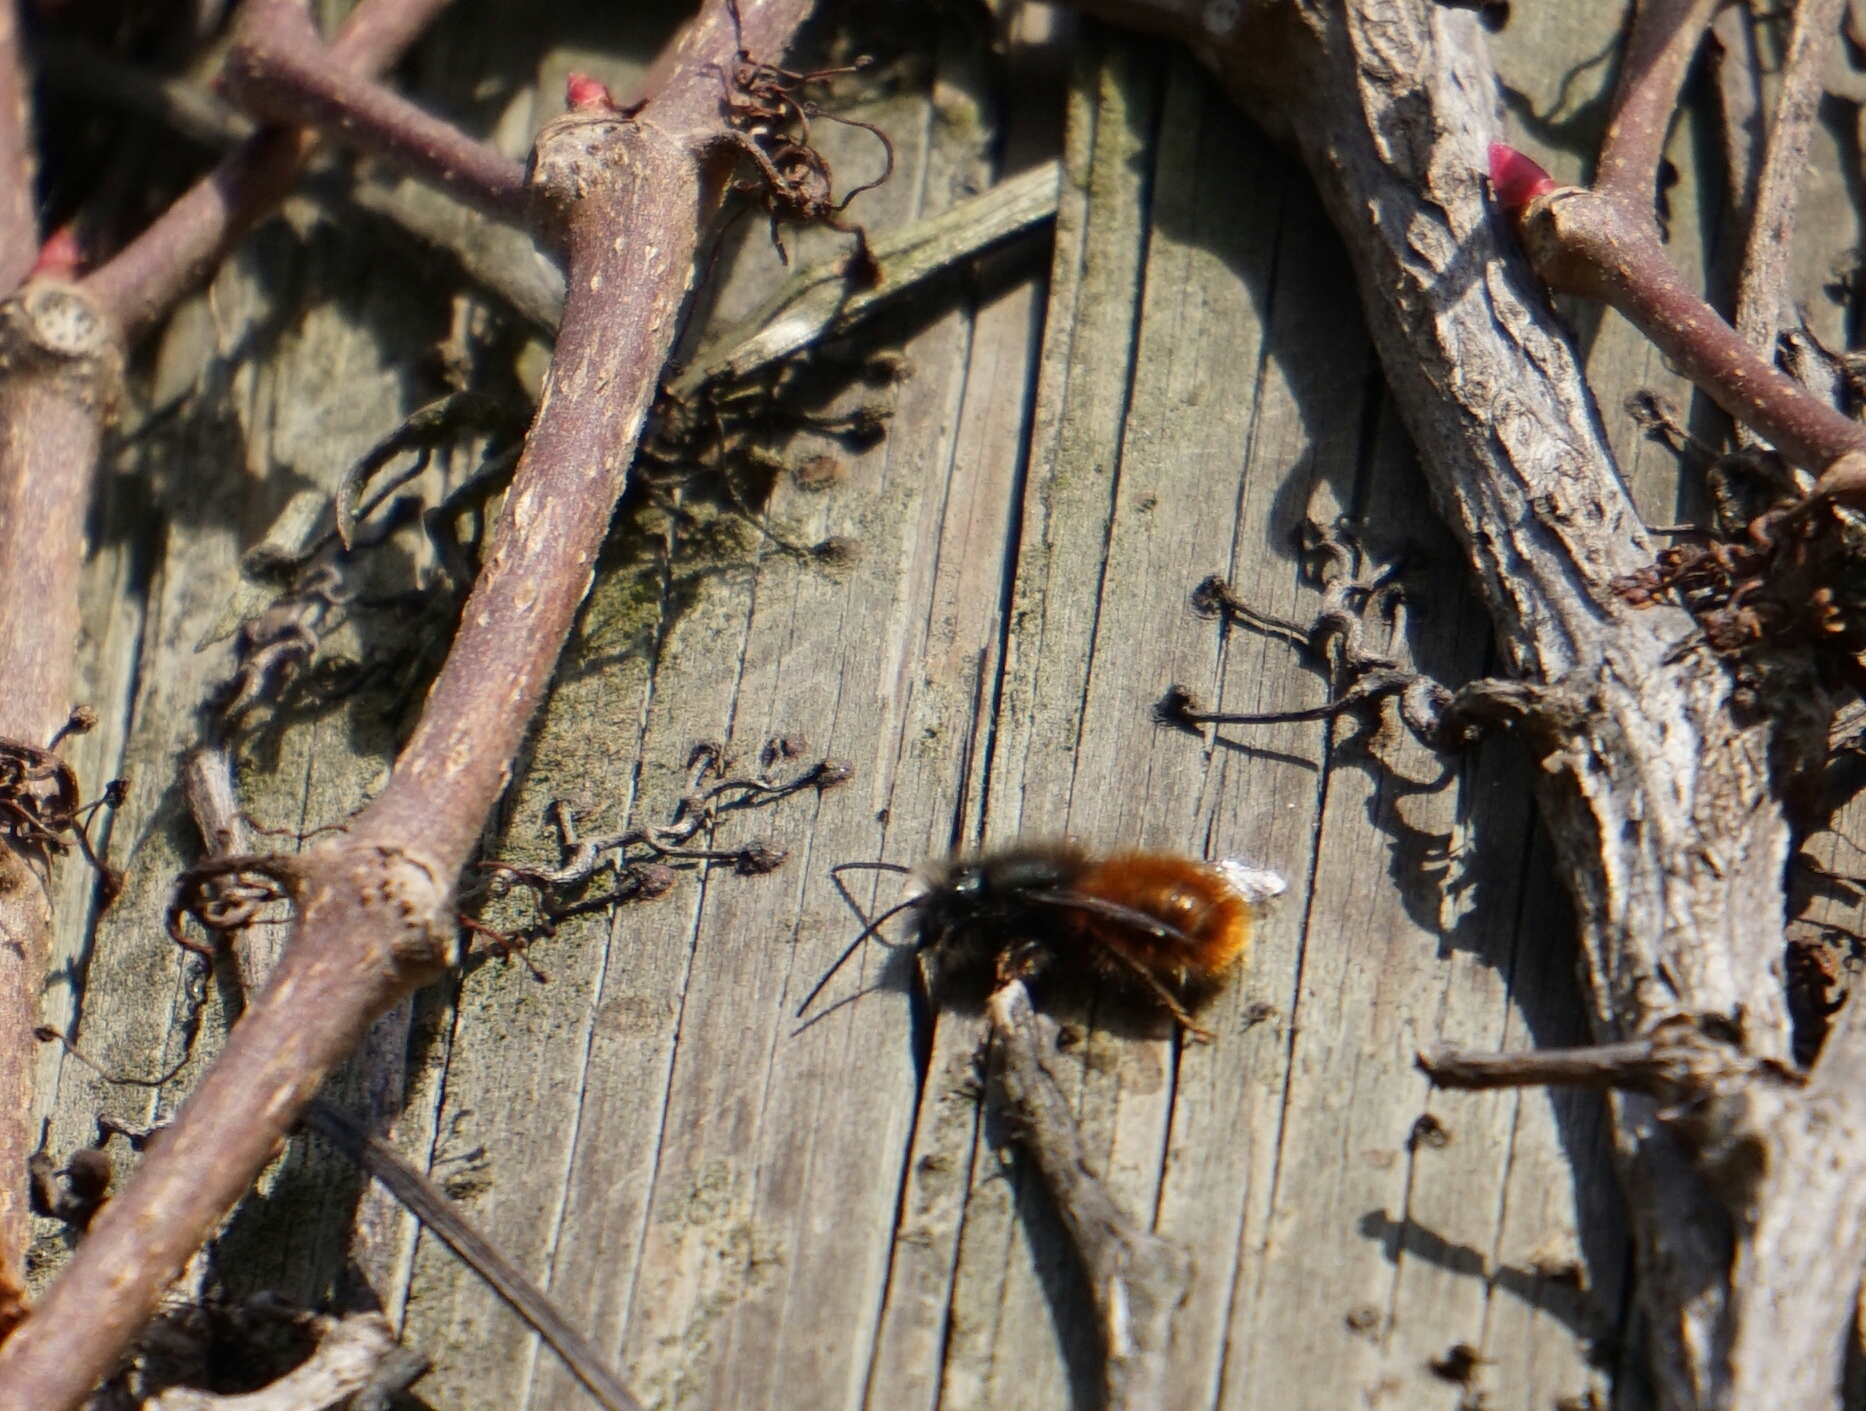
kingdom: Animalia
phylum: Arthropoda
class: Insecta
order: Hymenoptera
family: Megachilidae
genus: Osmia
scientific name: Osmia cornuta
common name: Mason bee
